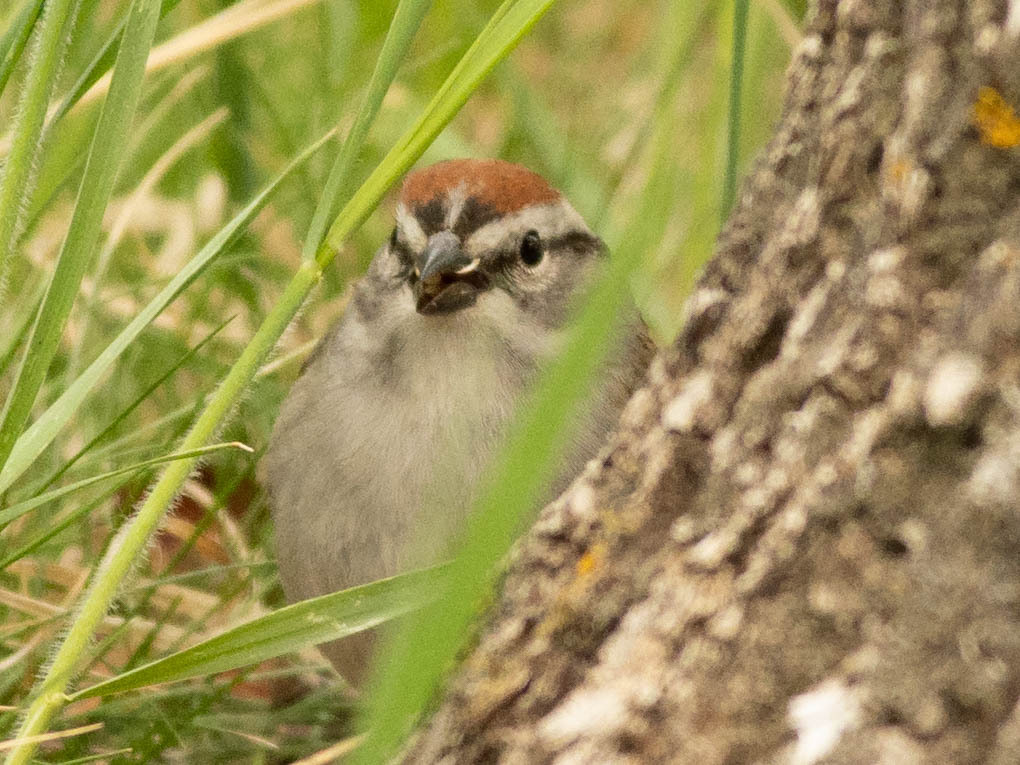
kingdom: Animalia
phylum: Chordata
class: Aves
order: Passeriformes
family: Passerellidae
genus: Spizella
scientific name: Spizella passerina
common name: Chipping sparrow
